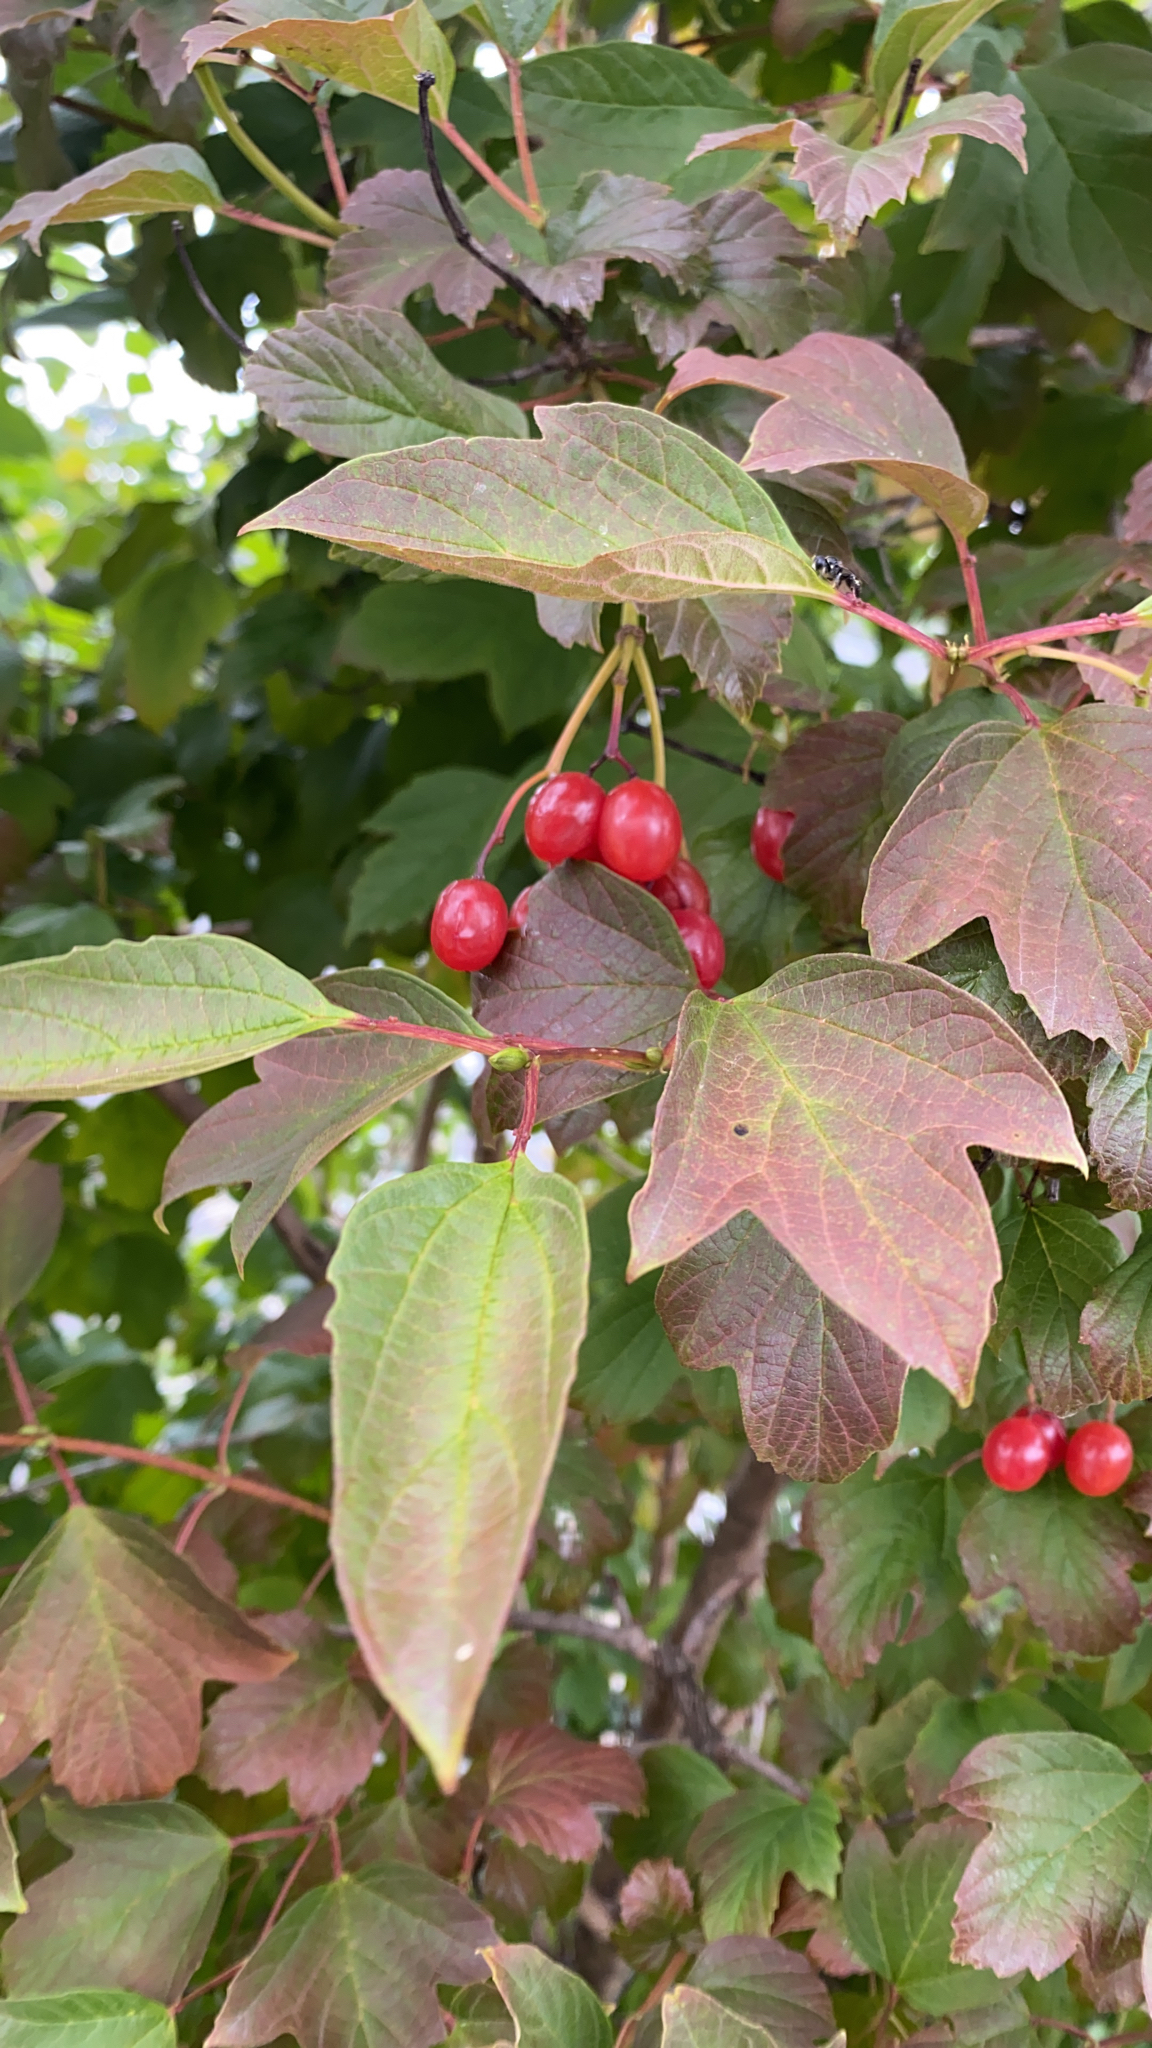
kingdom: Plantae
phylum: Tracheophyta
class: Magnoliopsida
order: Dipsacales
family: Viburnaceae
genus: Viburnum
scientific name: Viburnum opulus
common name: Guelder-rose
